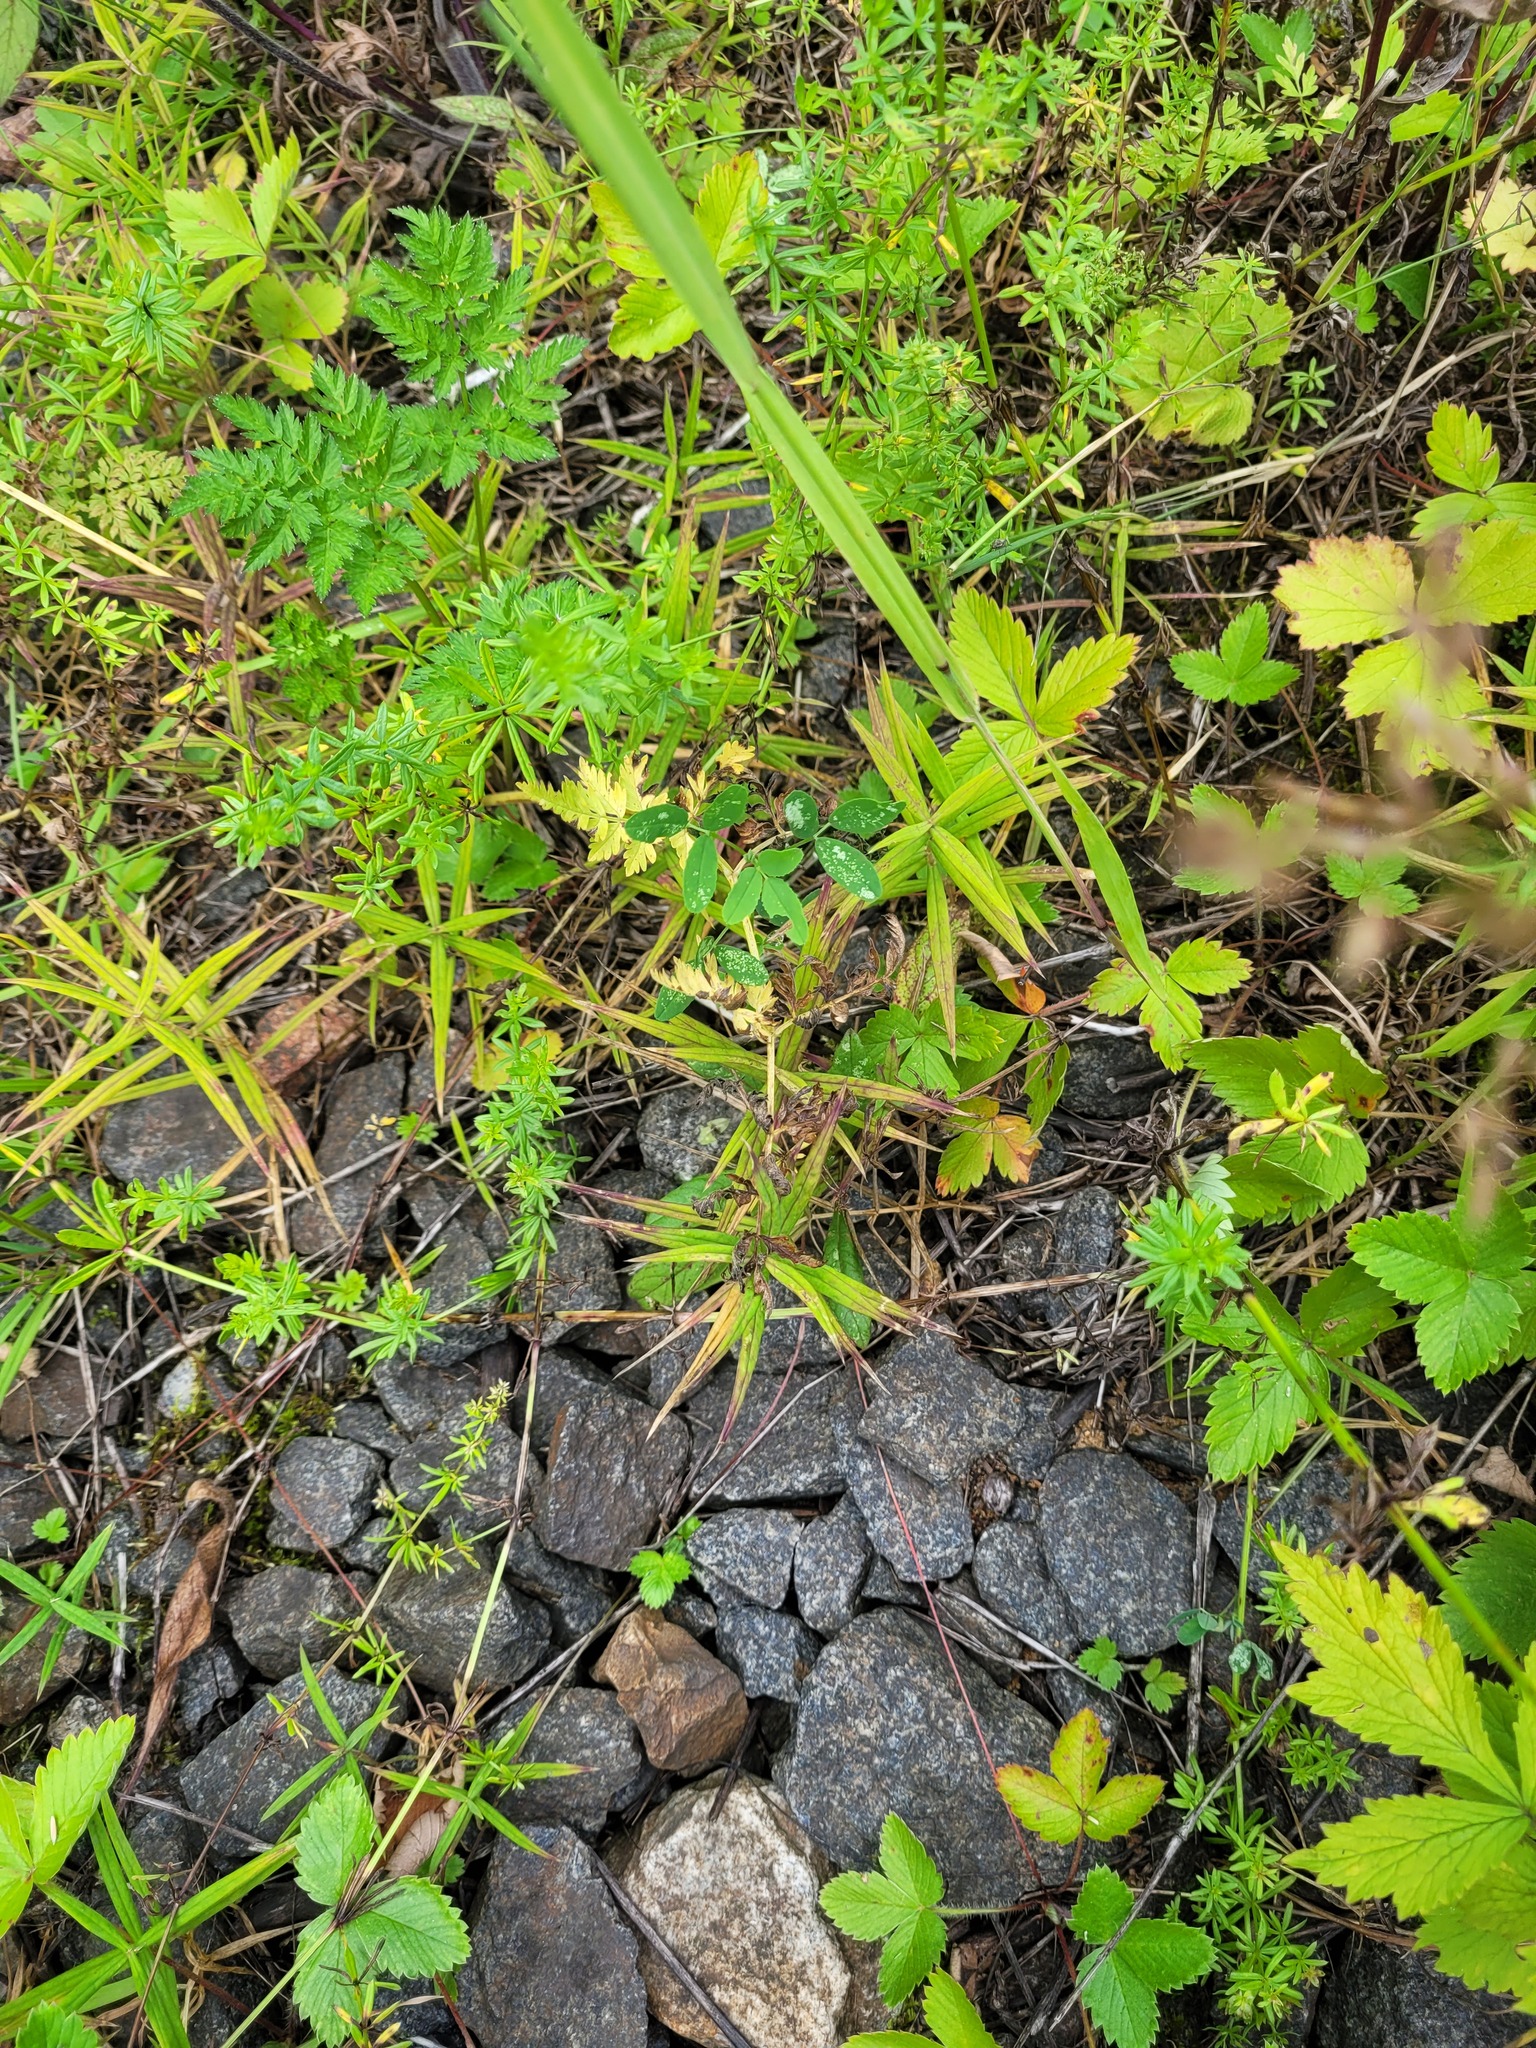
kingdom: Plantae
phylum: Tracheophyta
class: Magnoliopsida
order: Caryophyllales
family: Caryophyllaceae
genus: Rabelera
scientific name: Rabelera holostea
